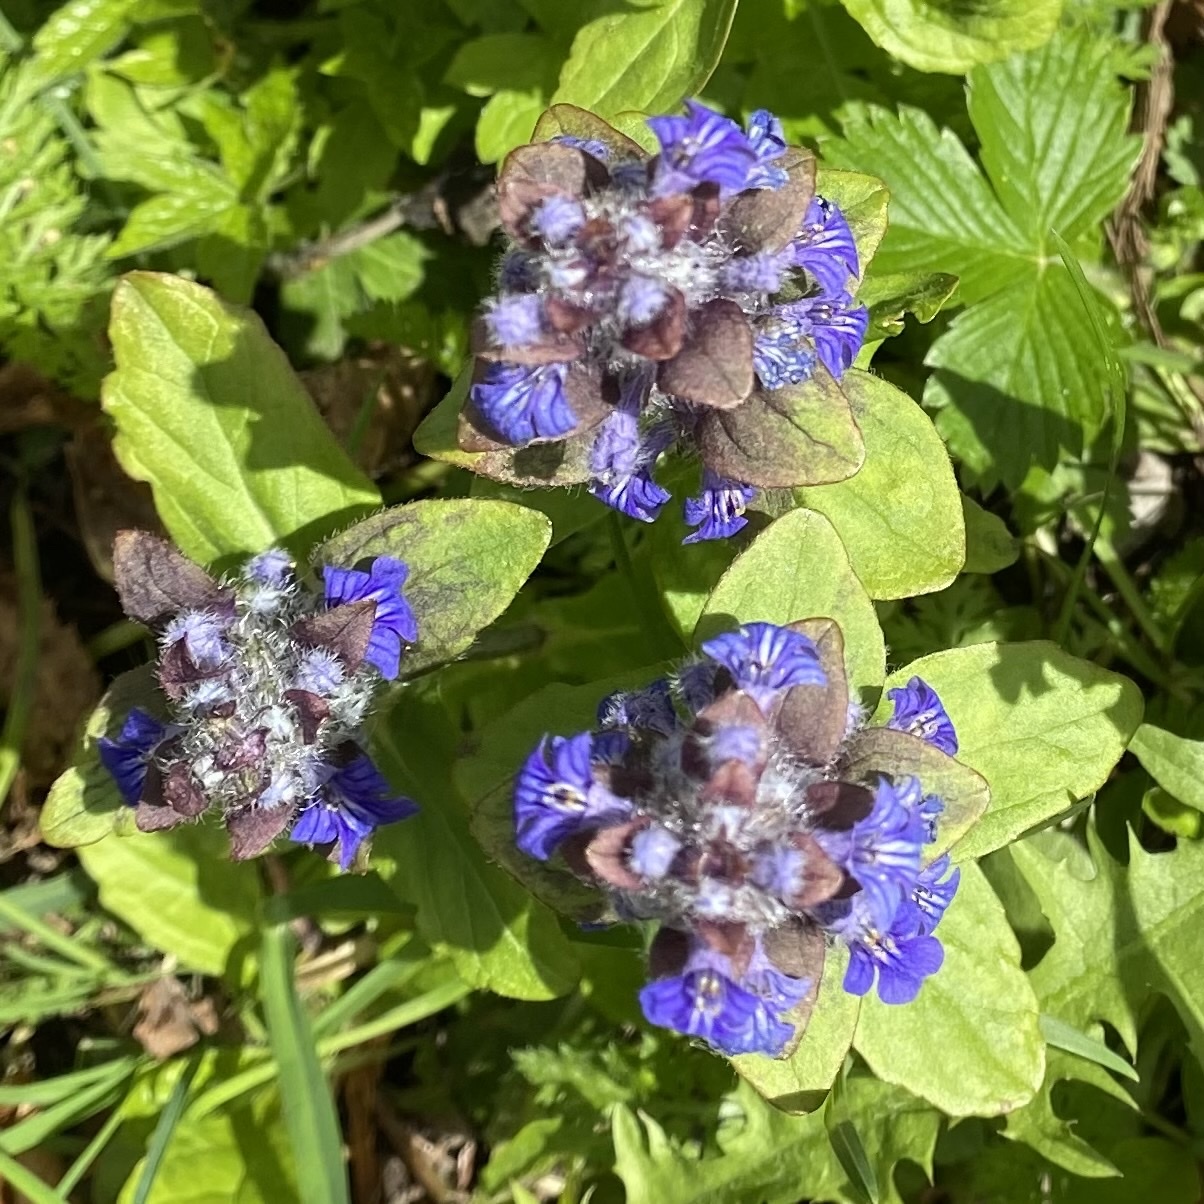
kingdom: Plantae
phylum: Tracheophyta
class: Magnoliopsida
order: Lamiales
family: Lamiaceae
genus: Ajuga
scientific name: Ajuga reptans
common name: Bugle
